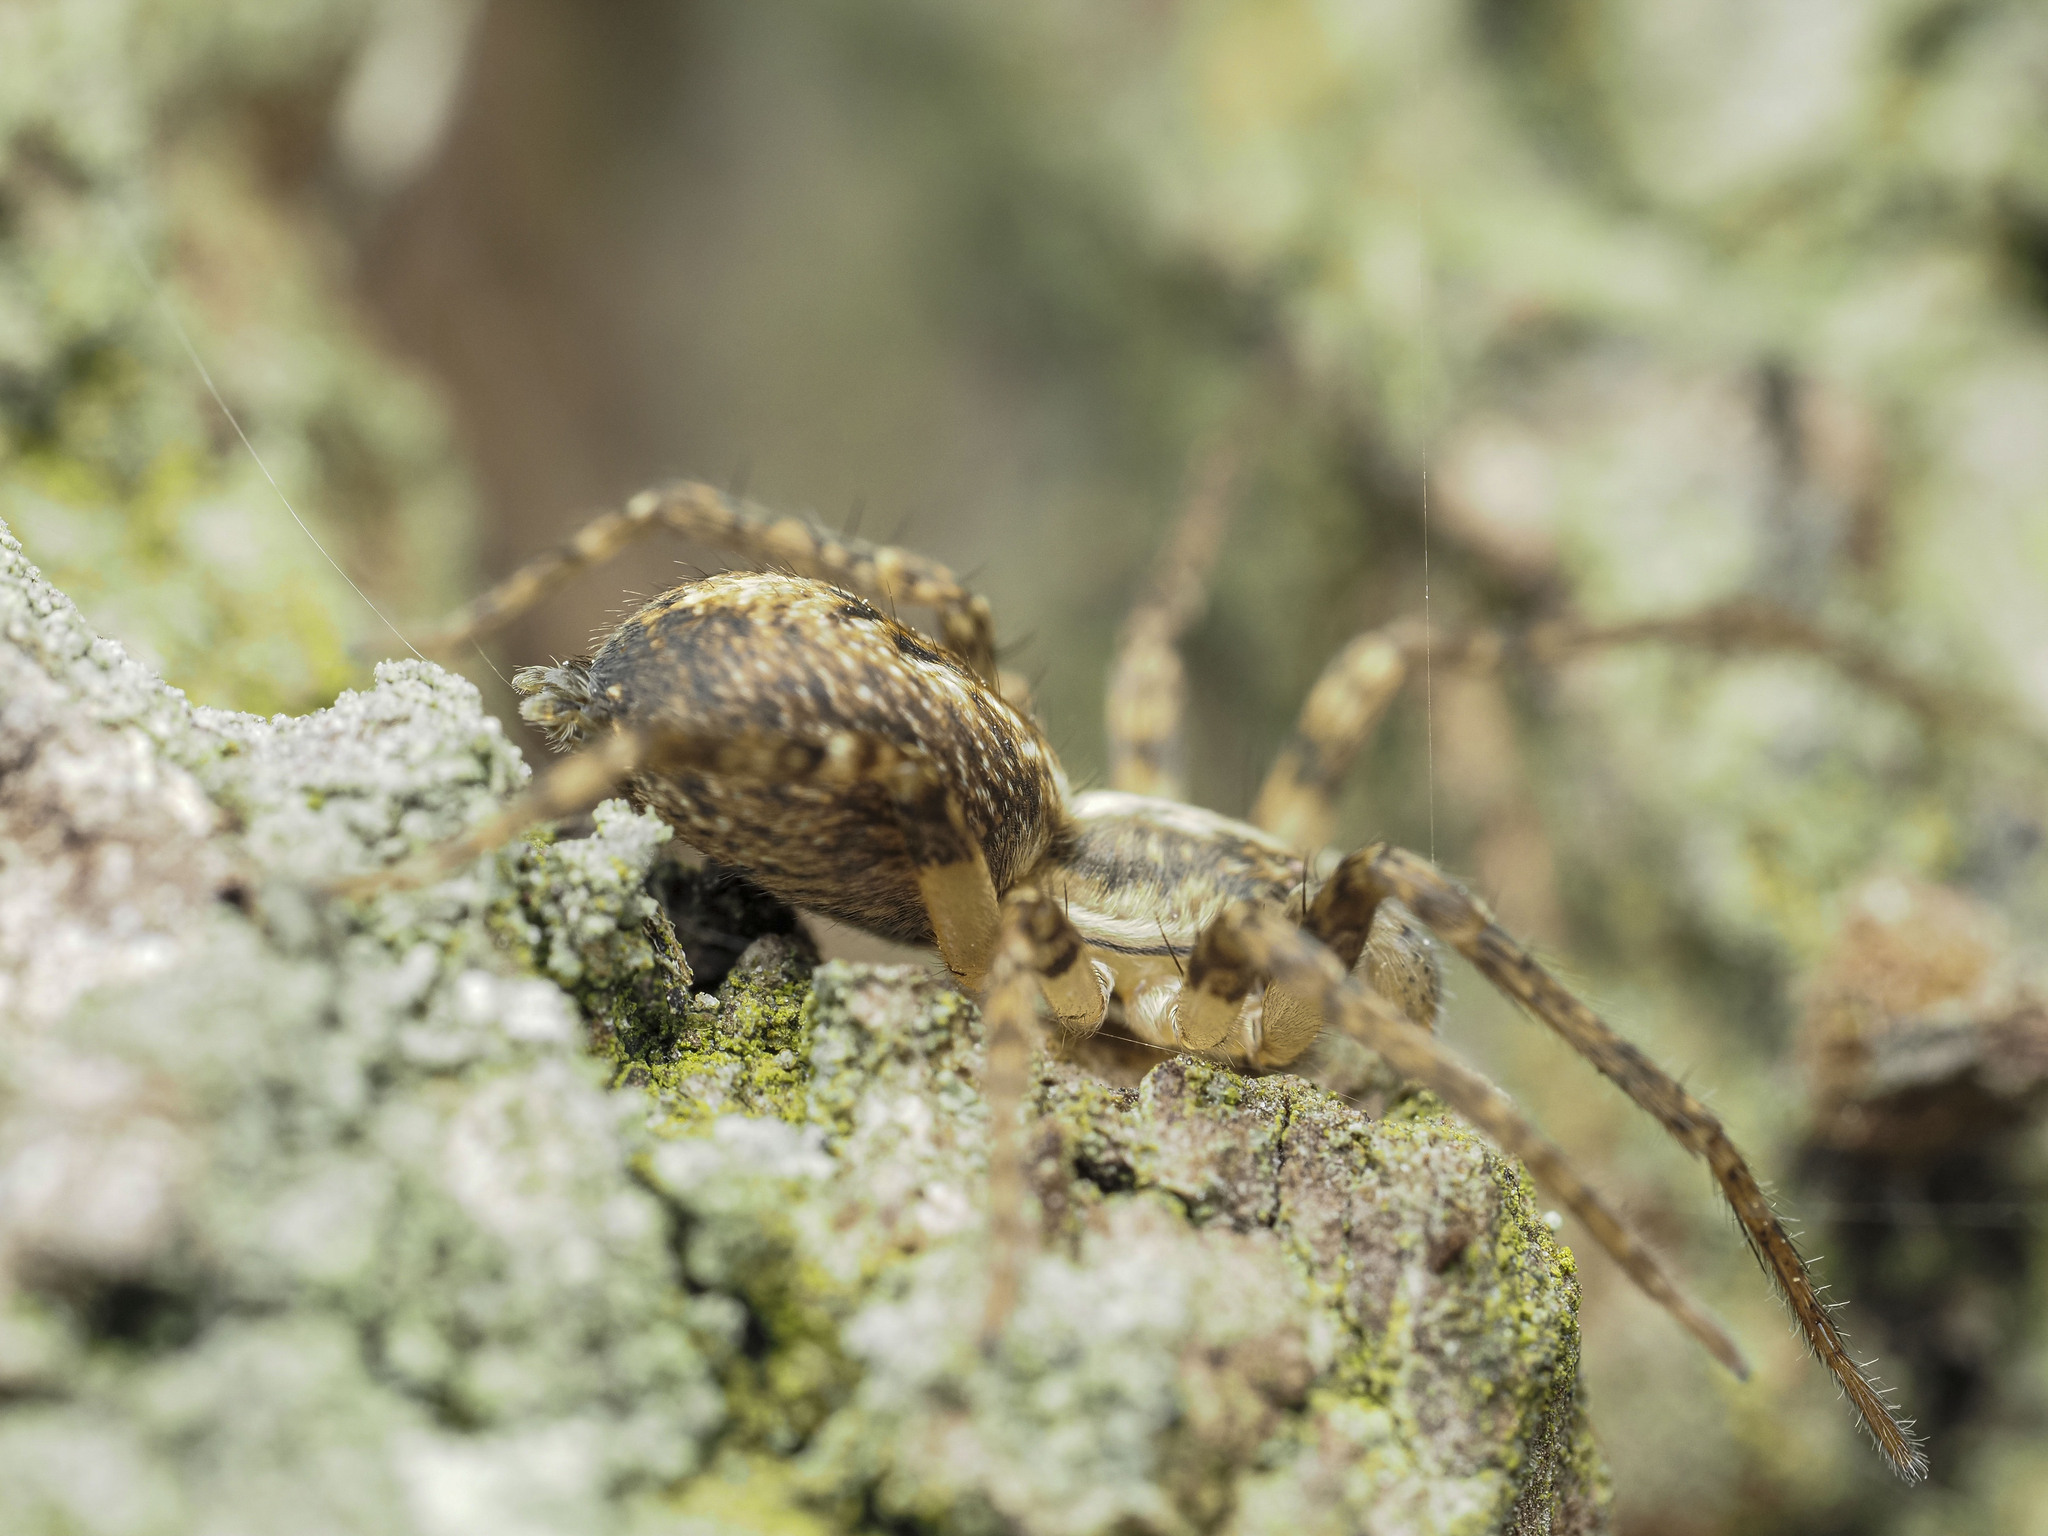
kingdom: Animalia
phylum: Arthropoda
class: Arachnida
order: Araneae
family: Anyphaenidae
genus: Anyphaena
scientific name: Anyphaena accentuata
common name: Buzzing spider
